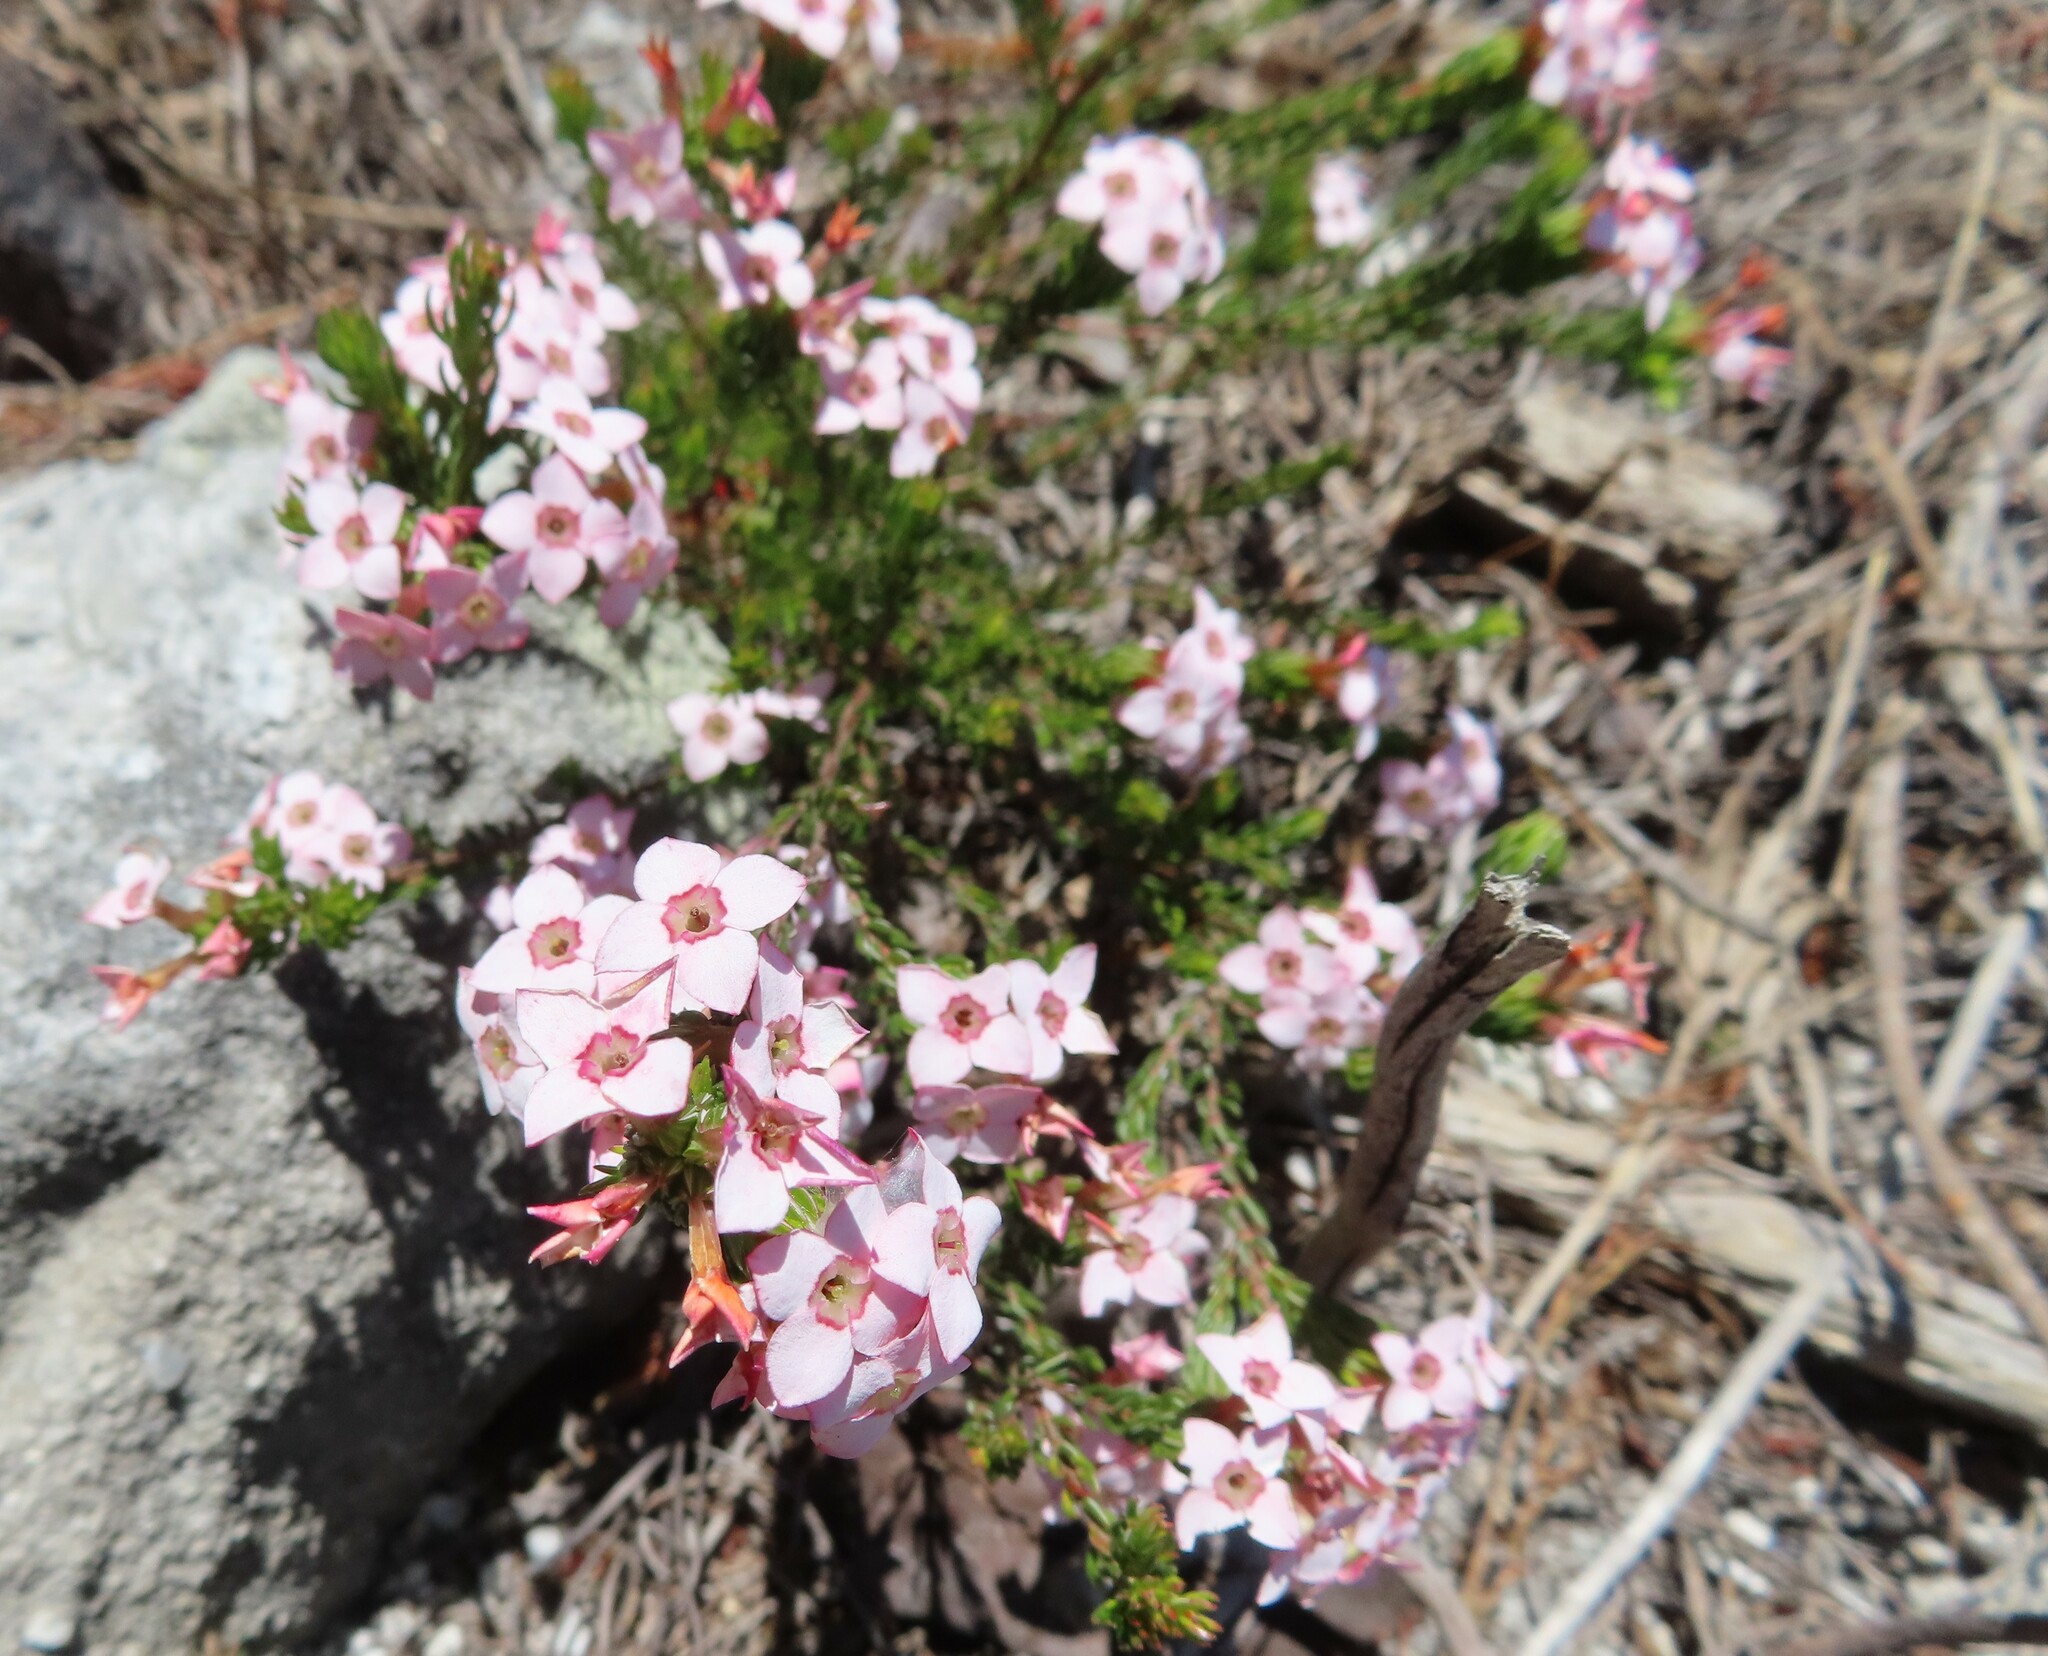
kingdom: Plantae
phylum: Tracheophyta
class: Magnoliopsida
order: Ericales
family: Ericaceae
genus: Erica
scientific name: Erica fastigiata
